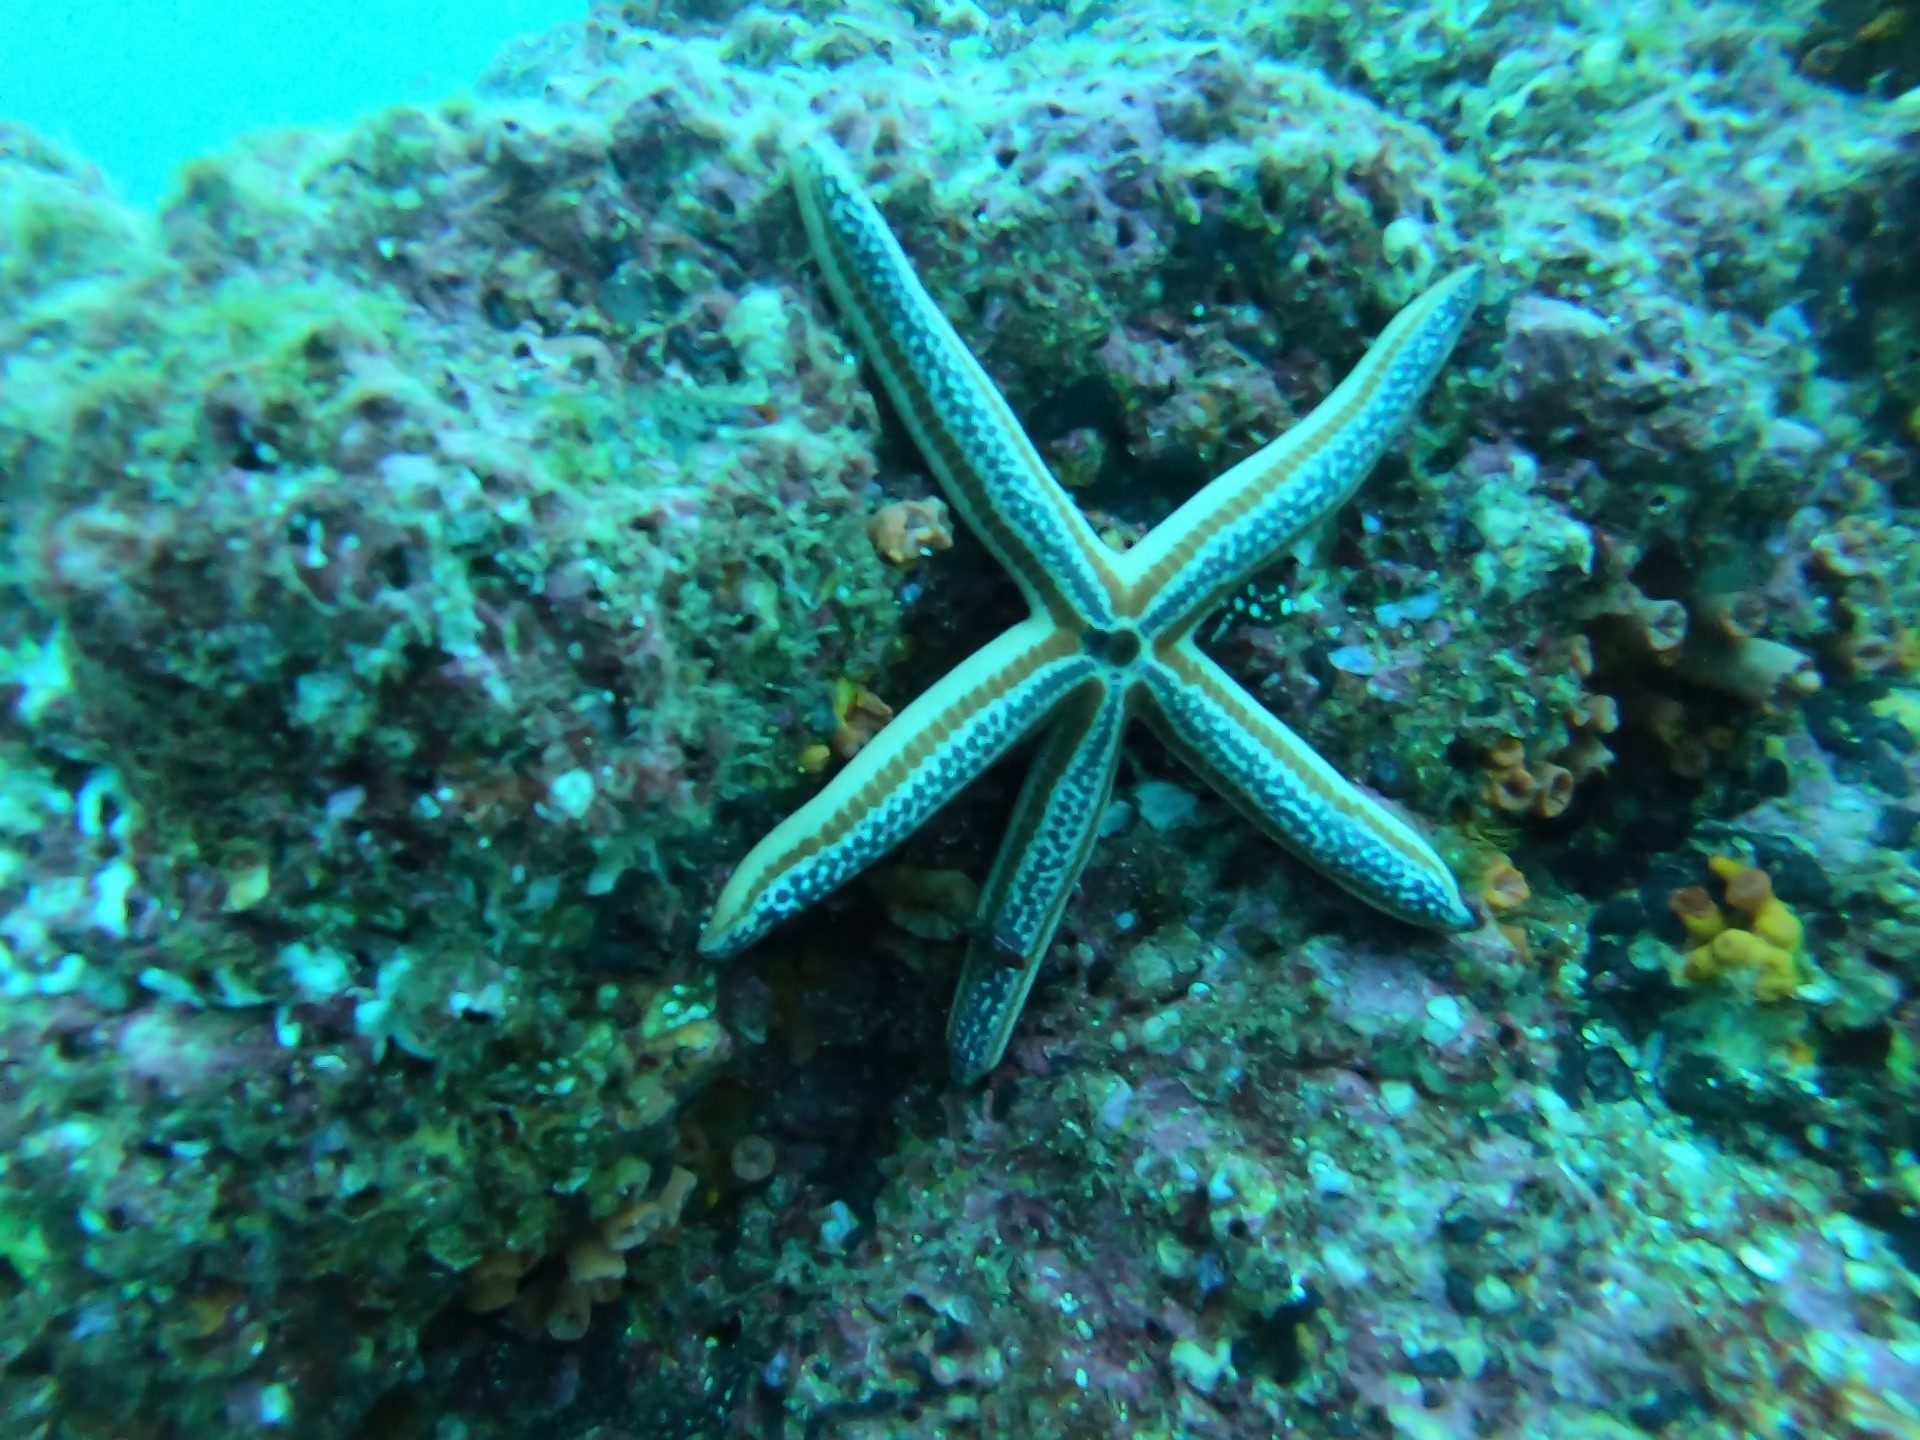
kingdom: Animalia
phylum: Echinodermata
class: Asteroidea
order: Valvatida
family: Ophidiasteridae
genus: Phataria
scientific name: Phataria unifascialis
